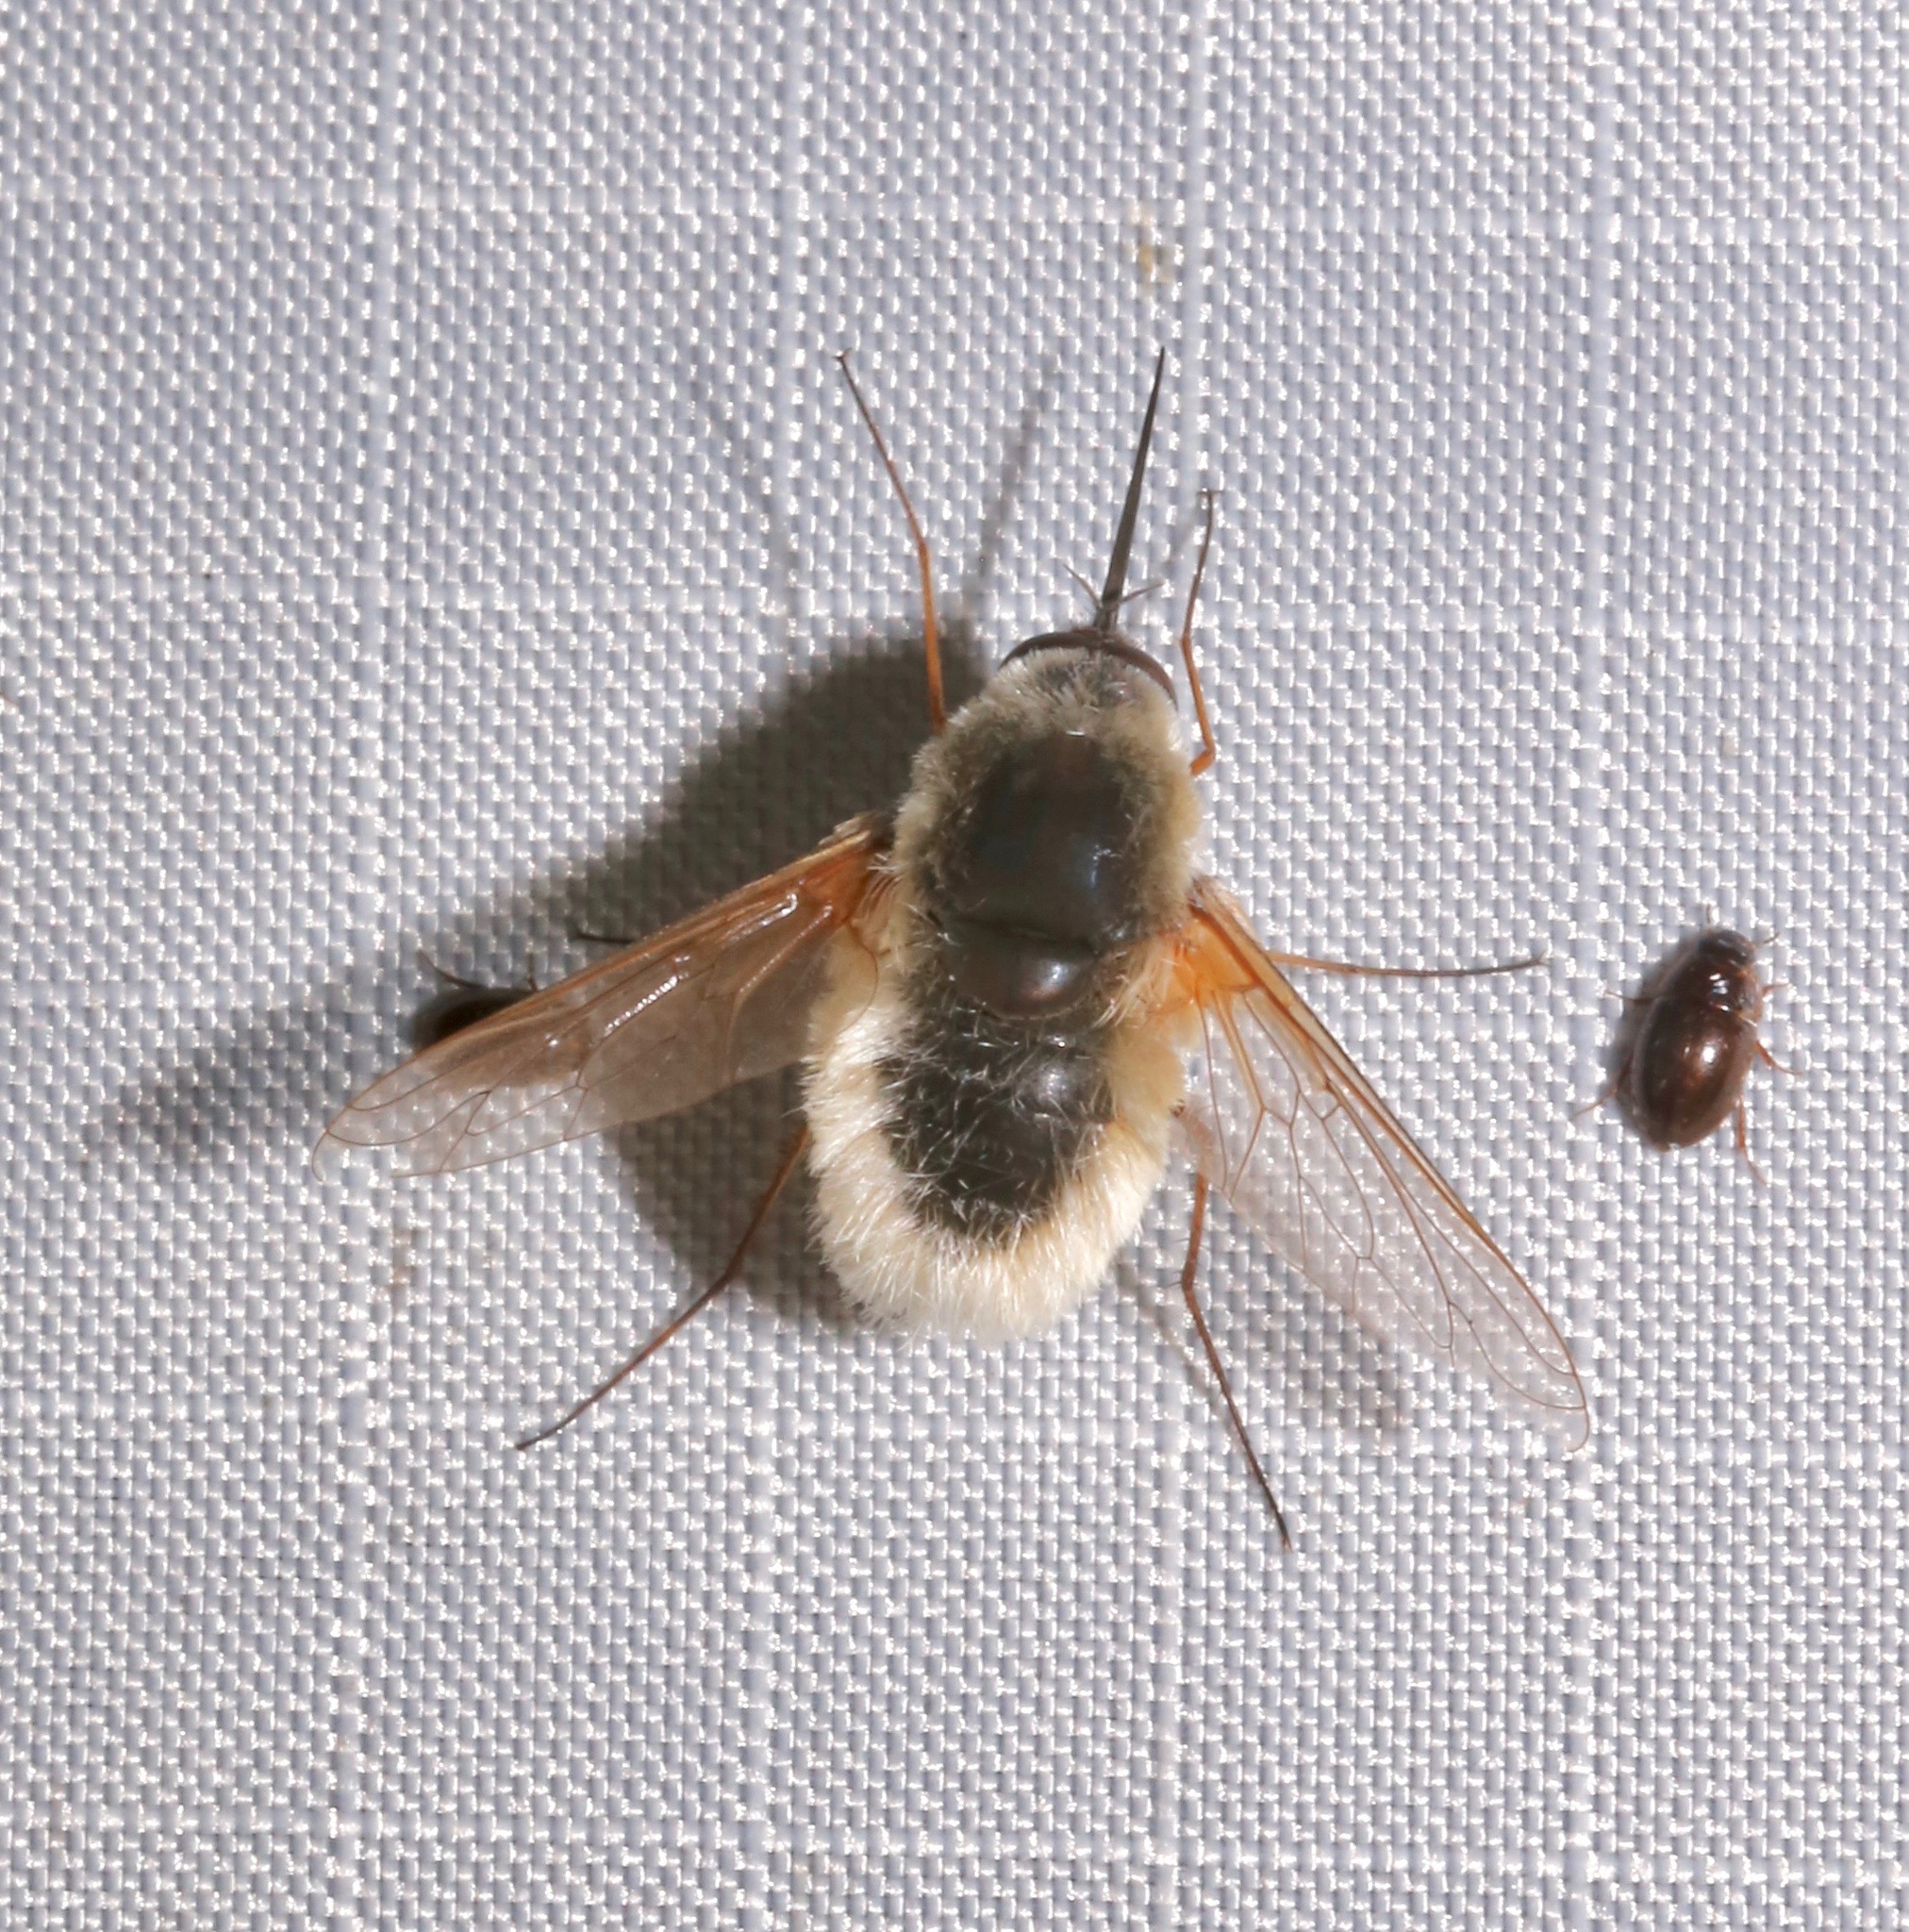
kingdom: Animalia
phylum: Arthropoda
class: Insecta
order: Diptera
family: Bombyliidae
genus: Systoechus
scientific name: Systoechus candidulus
